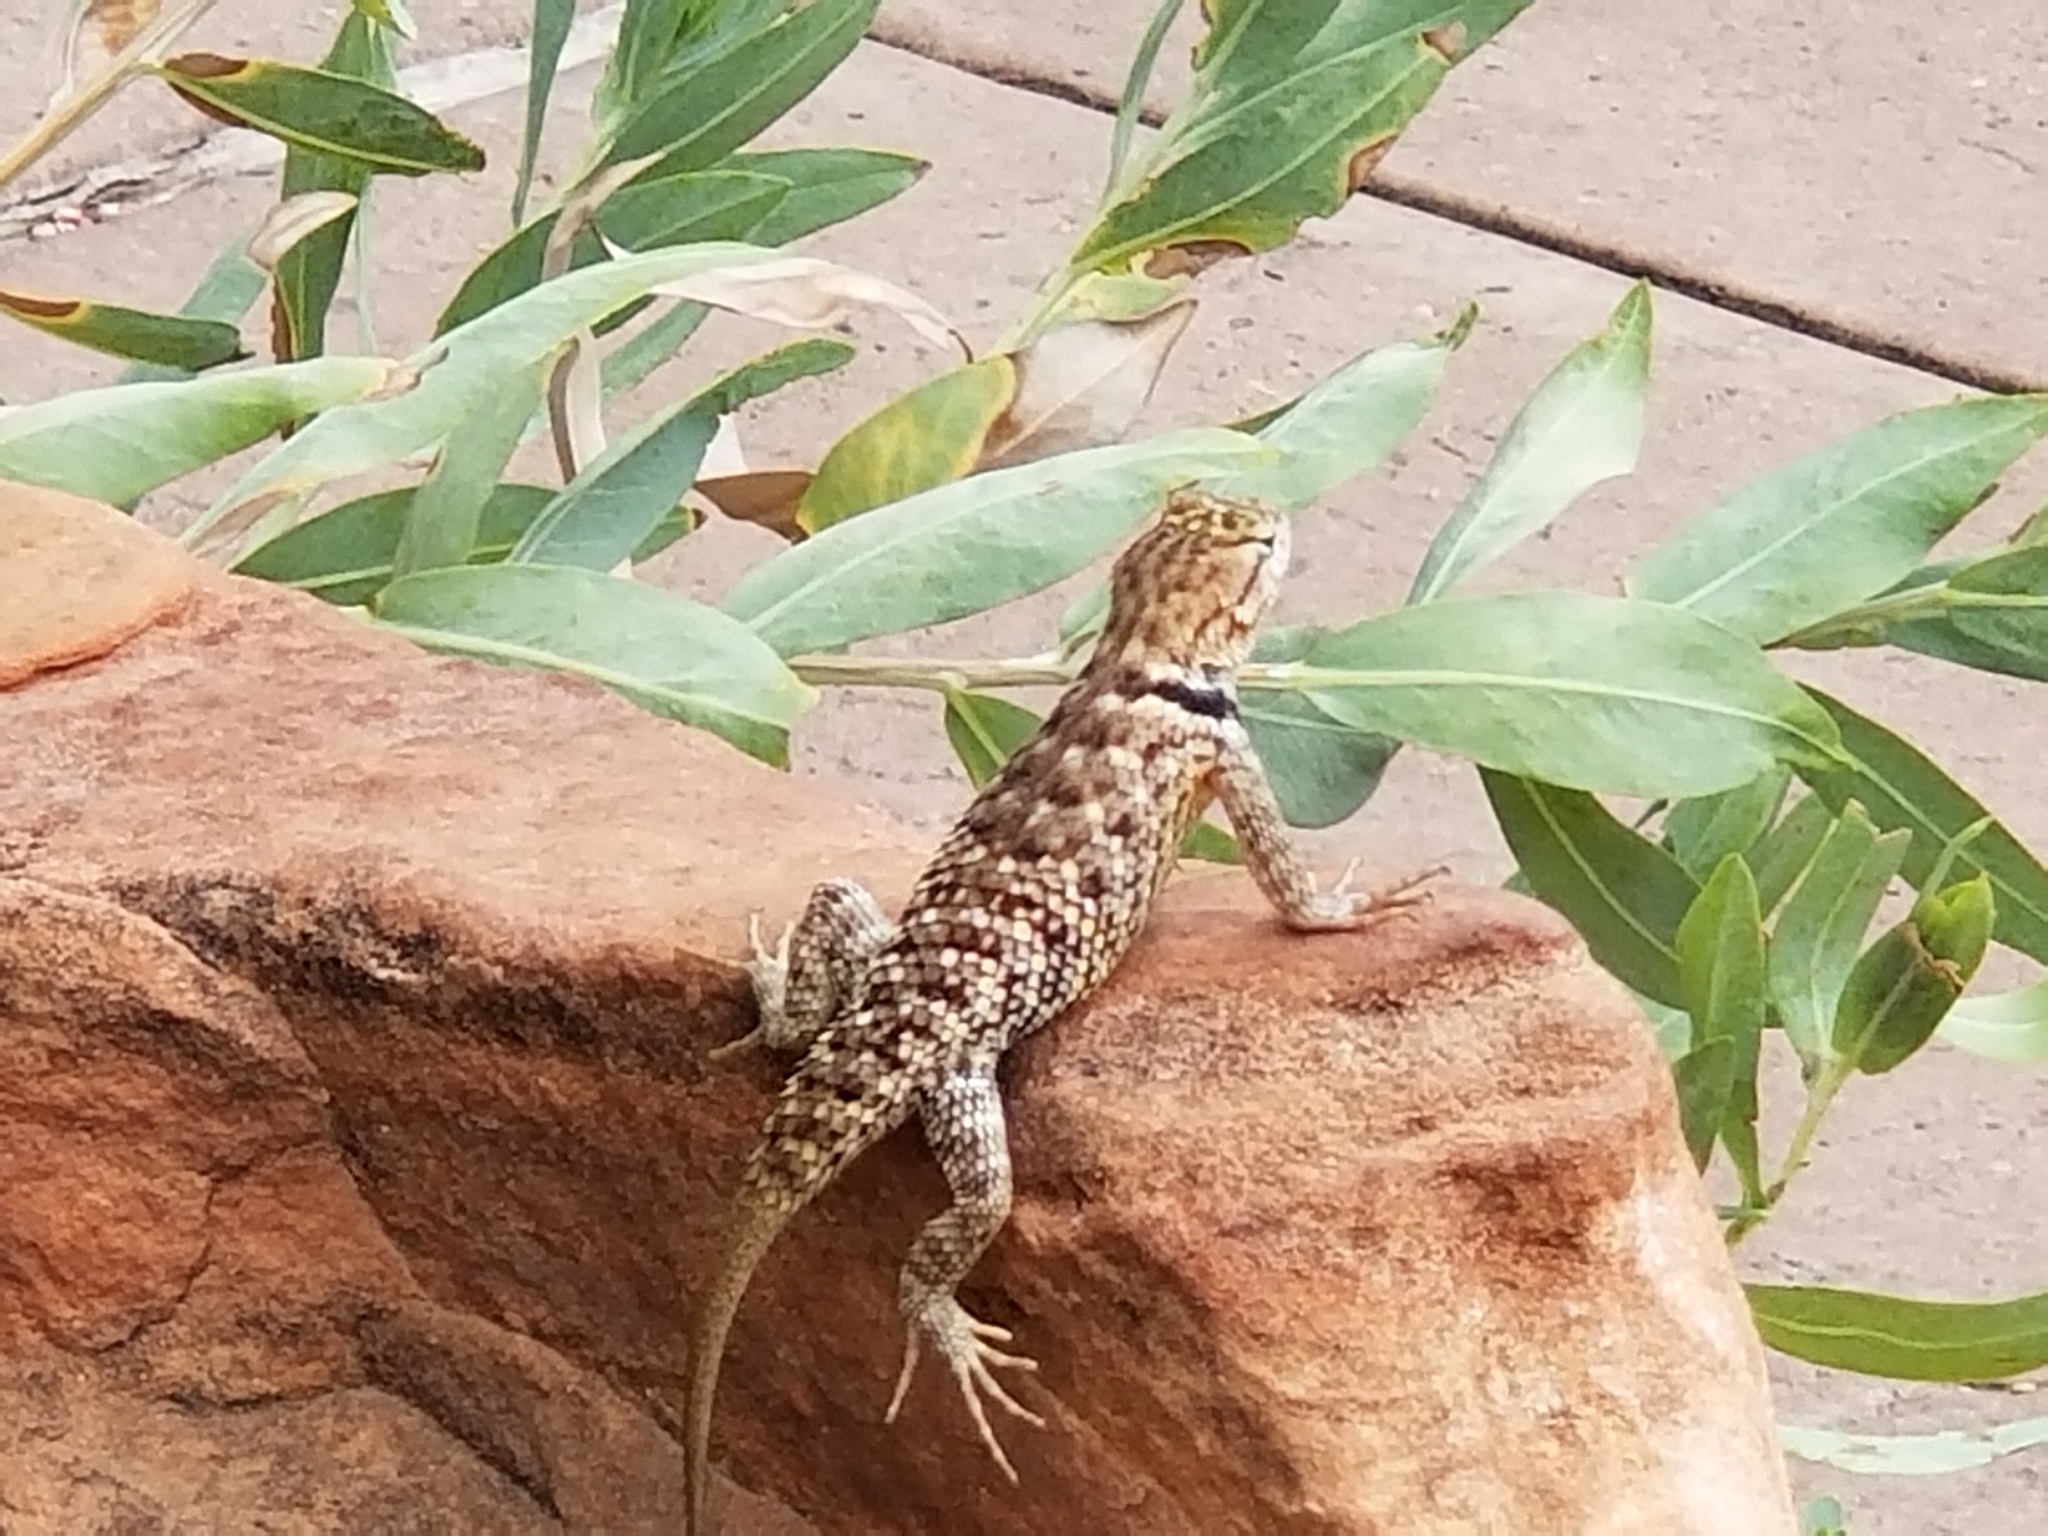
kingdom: Animalia
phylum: Chordata
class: Squamata
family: Phrynosomatidae
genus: Sceloporus
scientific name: Sceloporus uniformis
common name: Yellow-backed spiny lizard
